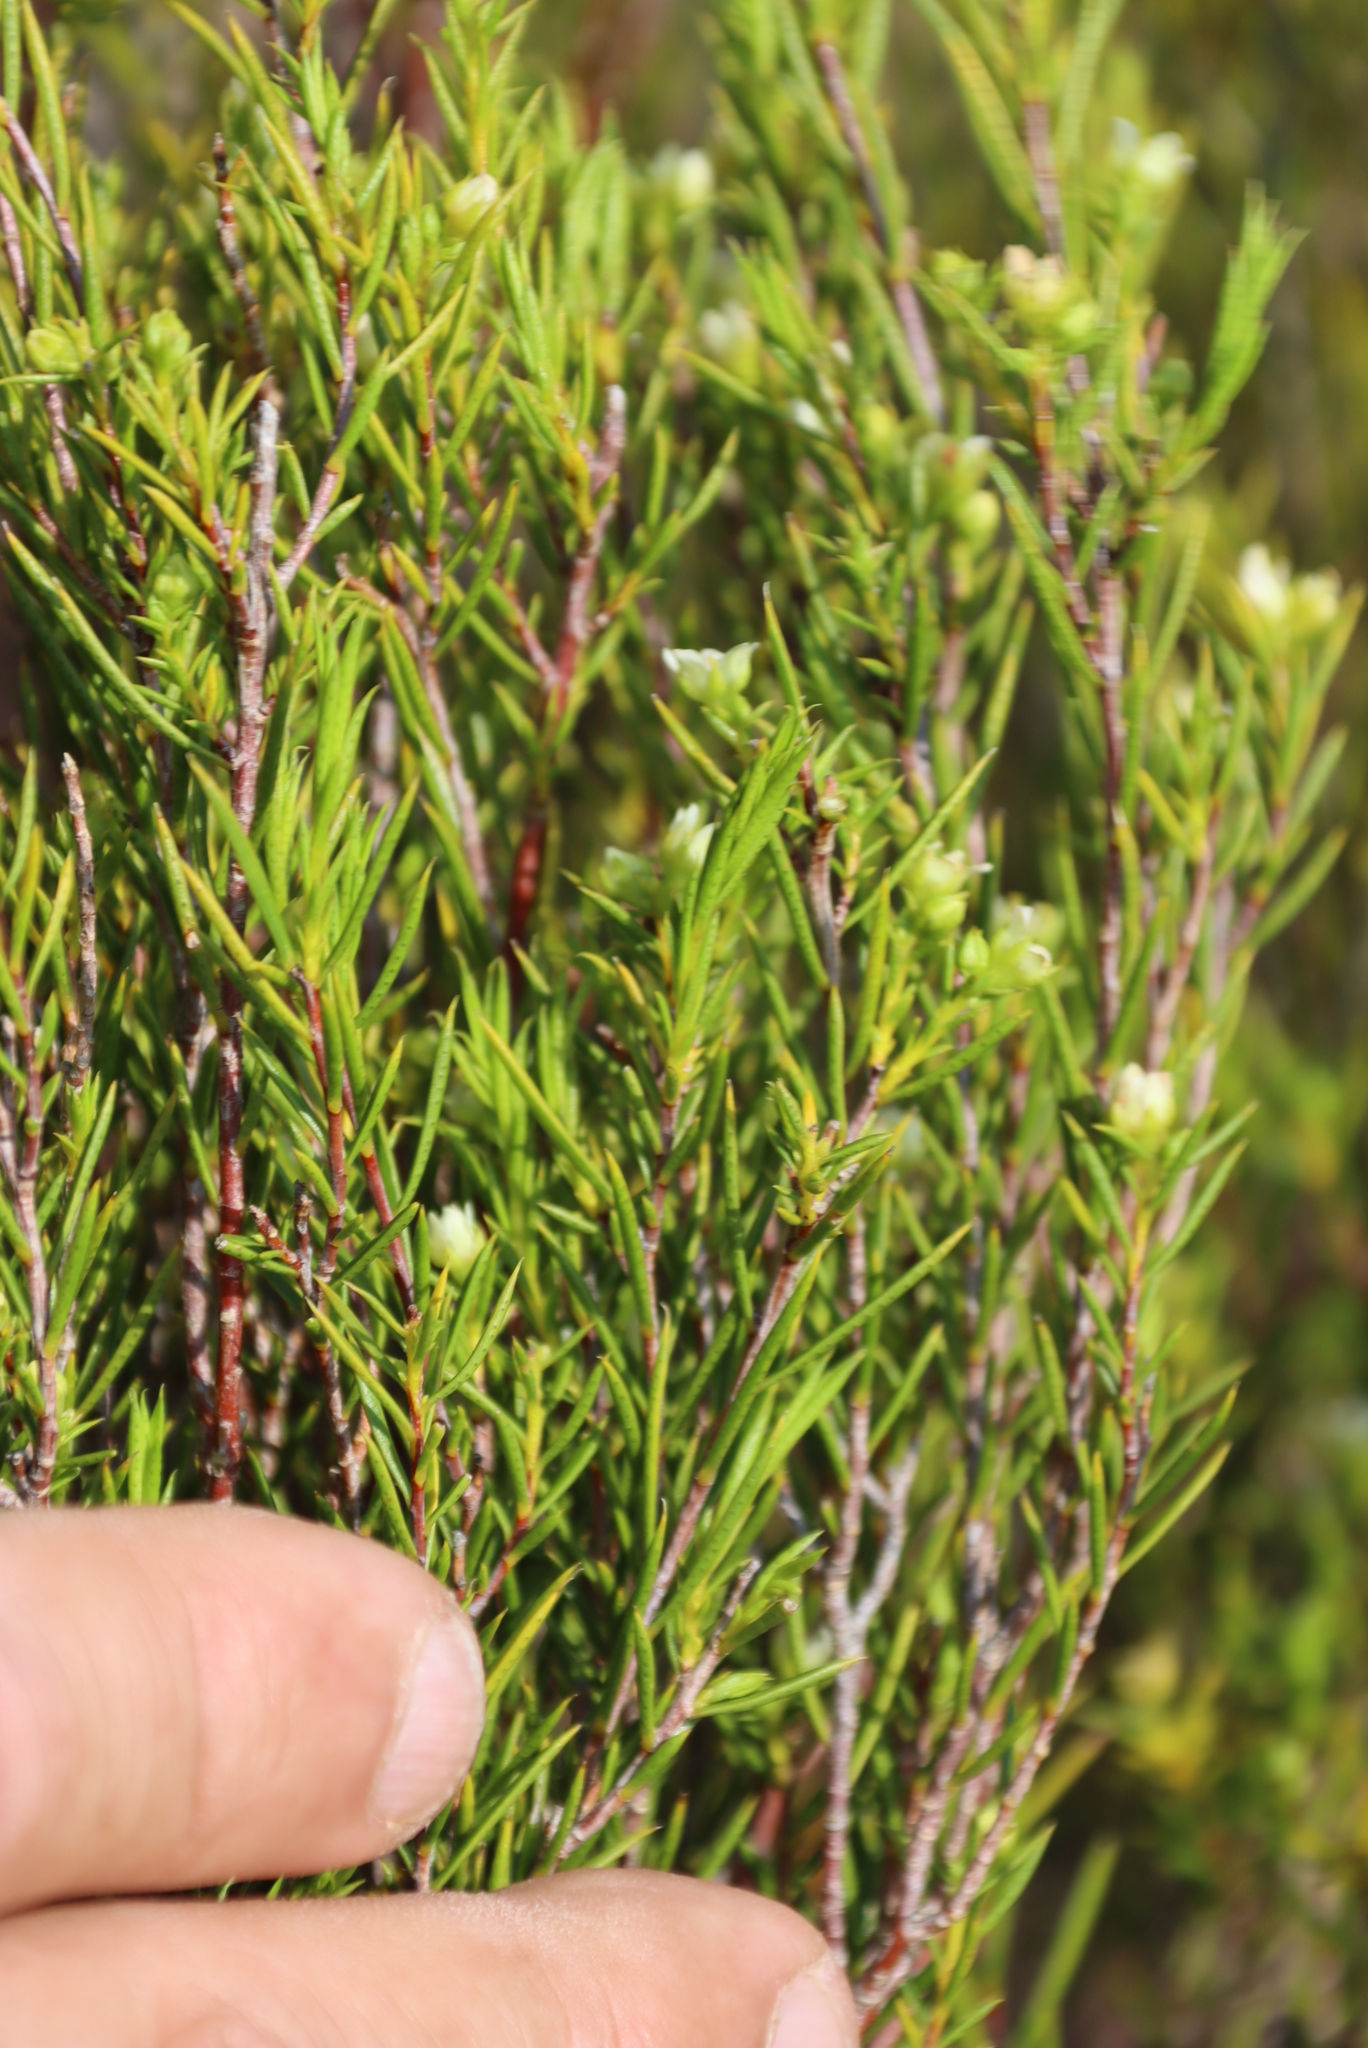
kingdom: Plantae
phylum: Tracheophyta
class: Magnoliopsida
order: Sapindales
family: Rutaceae
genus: Diosma
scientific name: Diosma acmaeophylla
